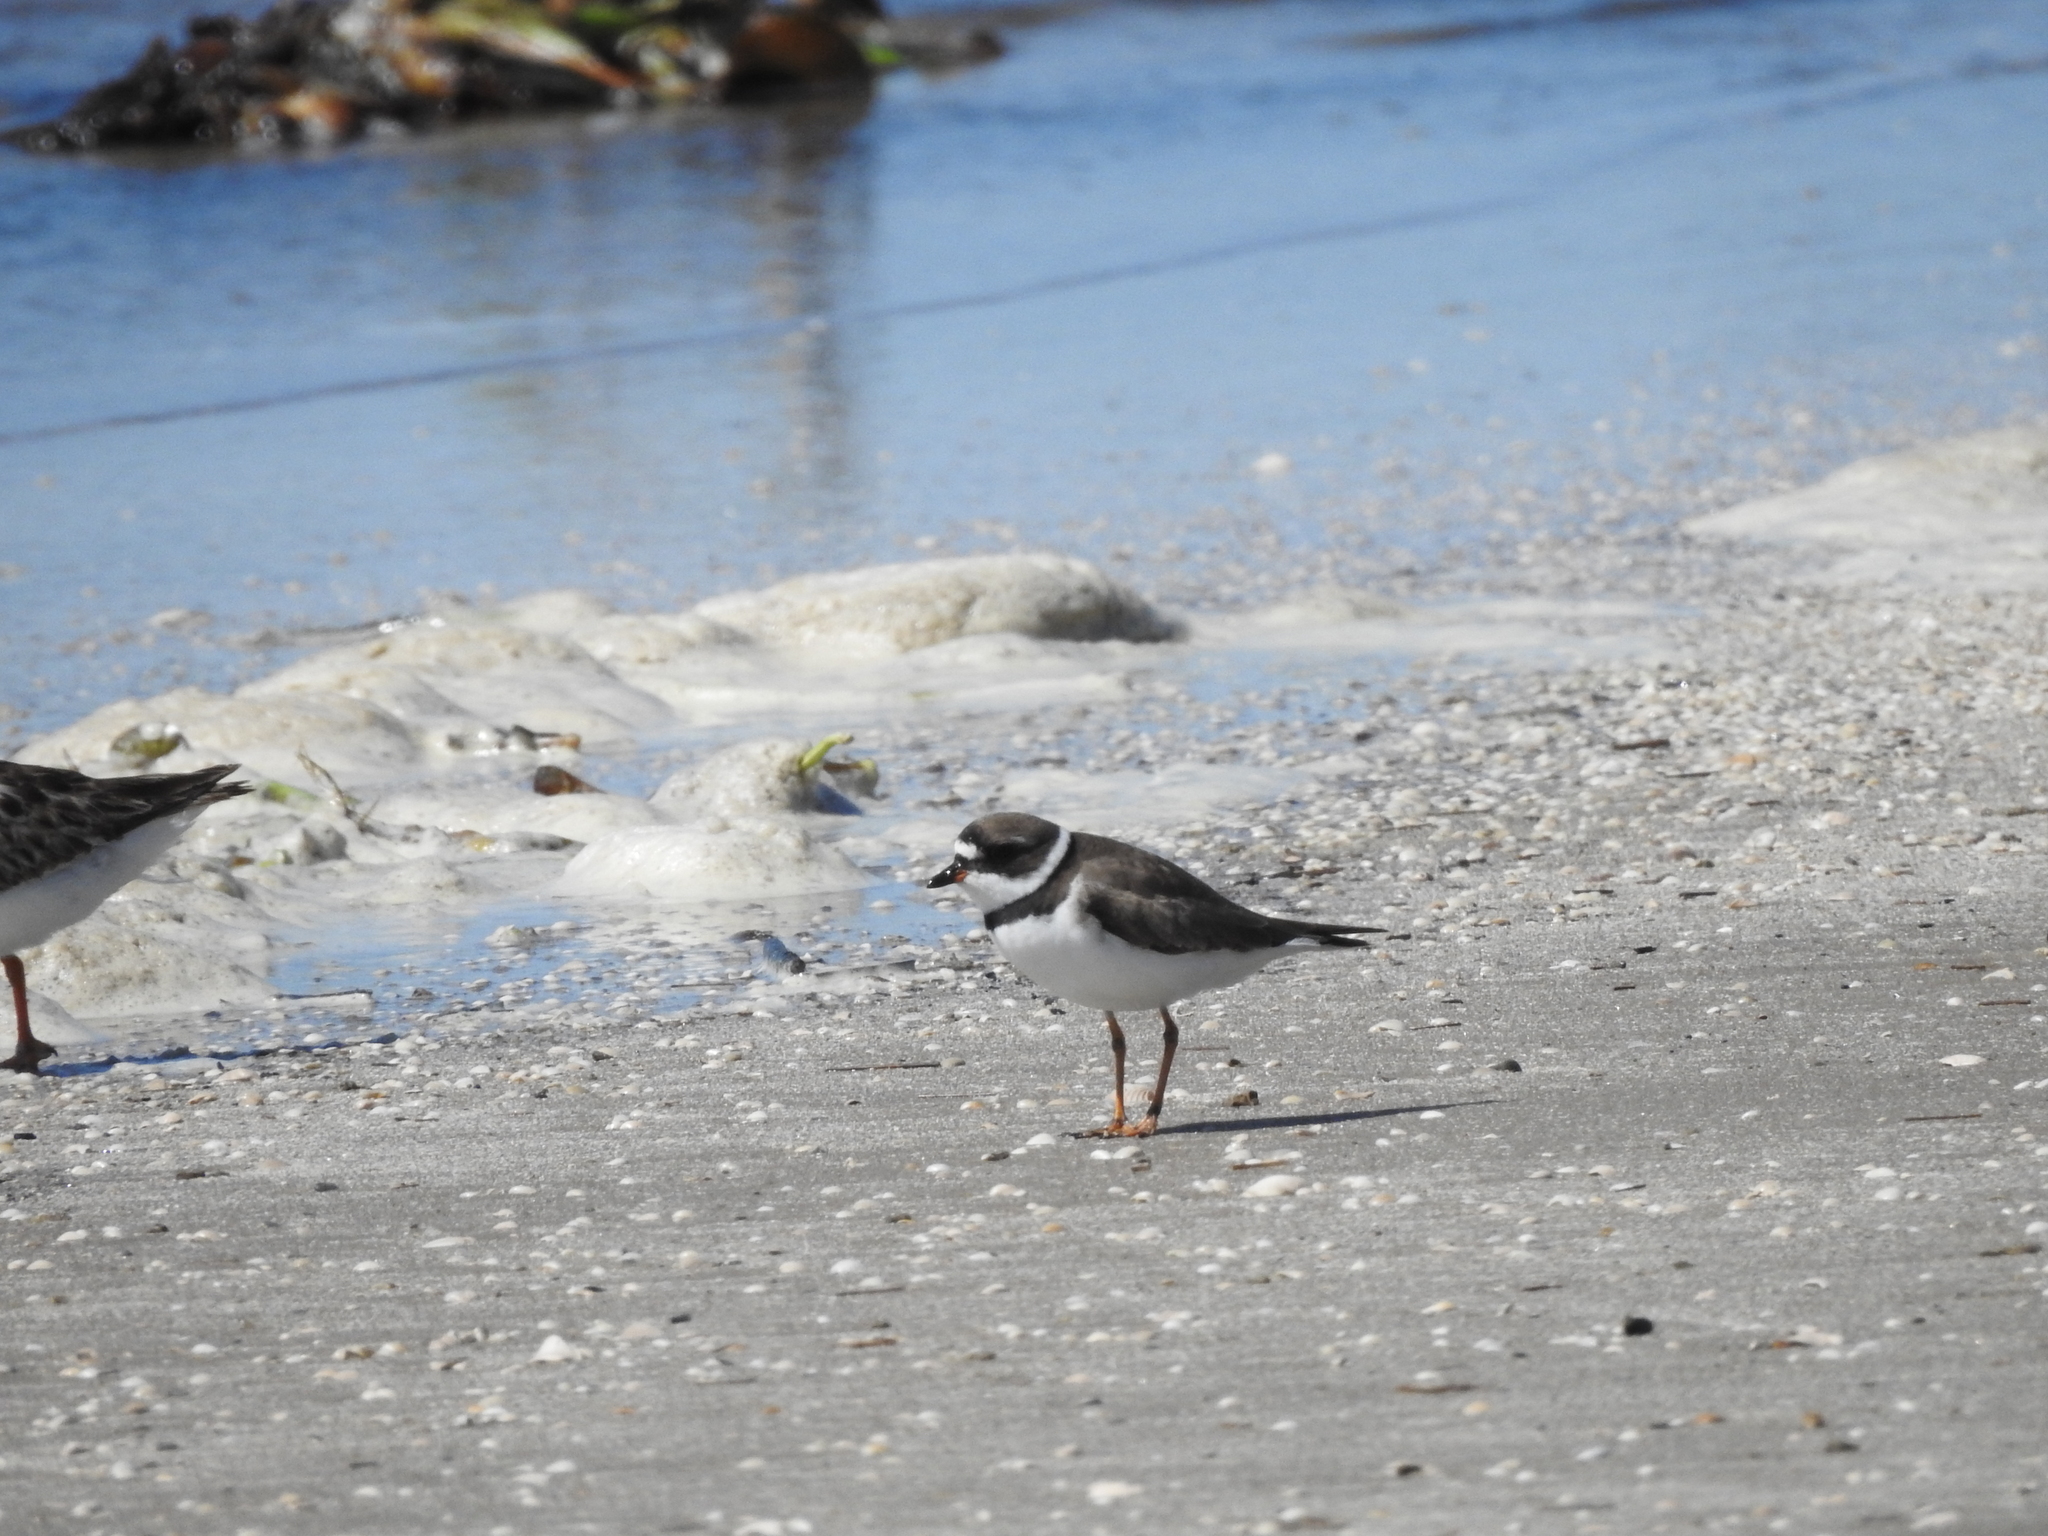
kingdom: Animalia
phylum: Chordata
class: Aves
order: Charadriiformes
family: Charadriidae
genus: Charadrius
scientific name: Charadrius semipalmatus
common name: Semipalmated plover
